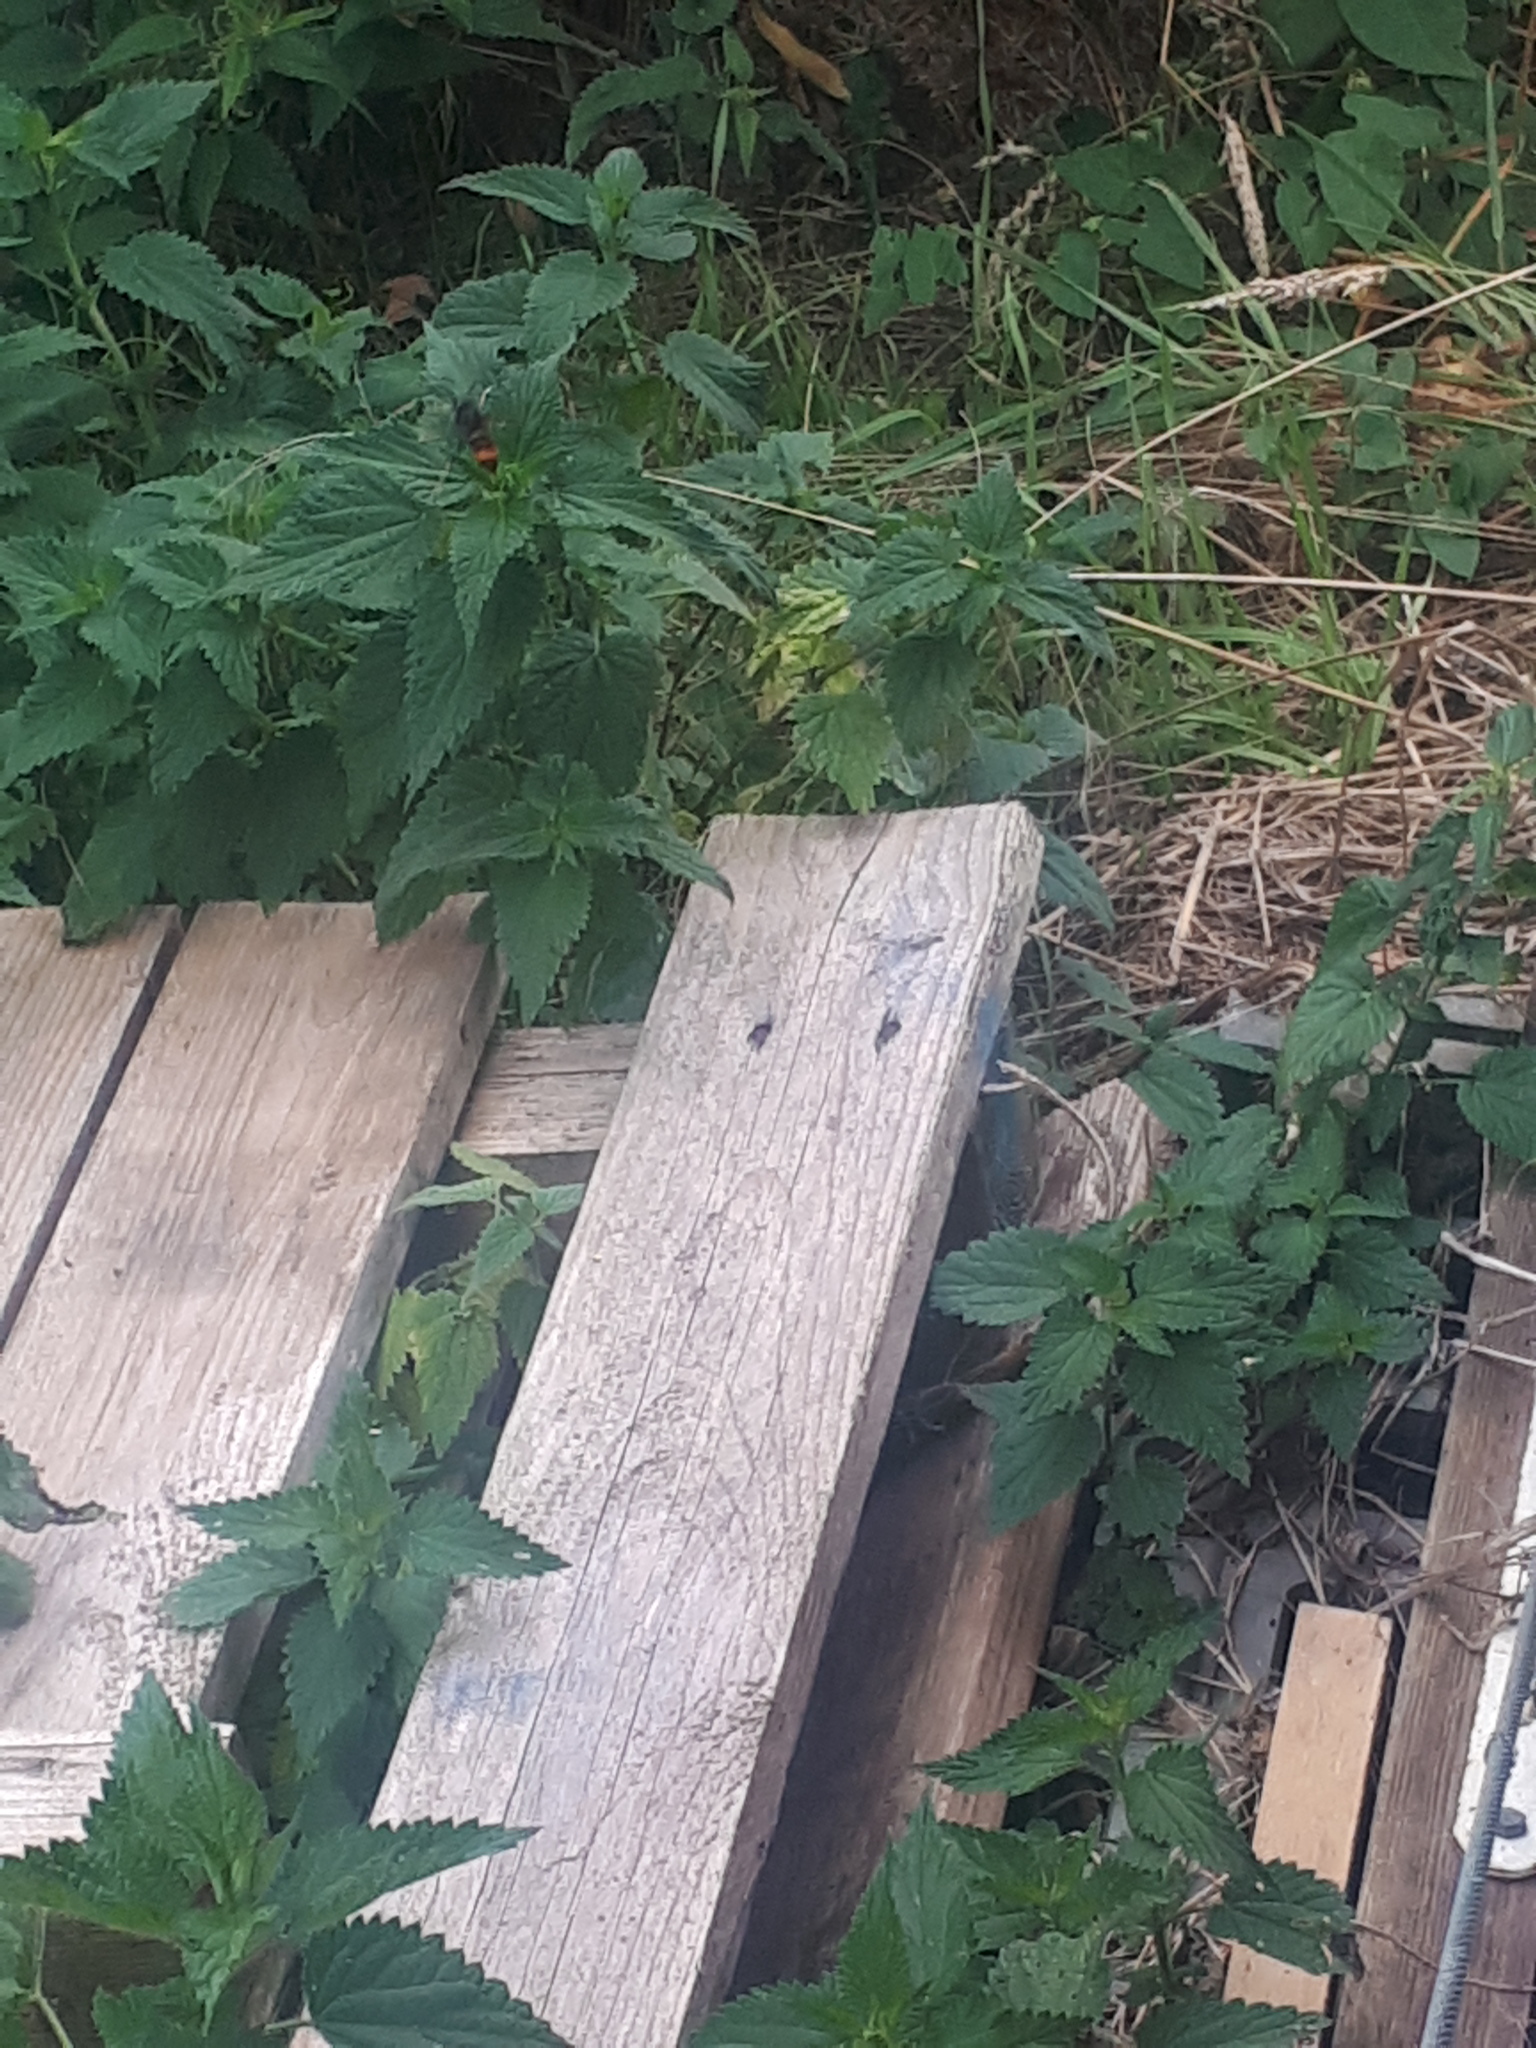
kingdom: Animalia
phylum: Arthropoda
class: Insecta
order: Hymenoptera
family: Vespidae
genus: Vespa
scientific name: Vespa velutina
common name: Asian hornet
